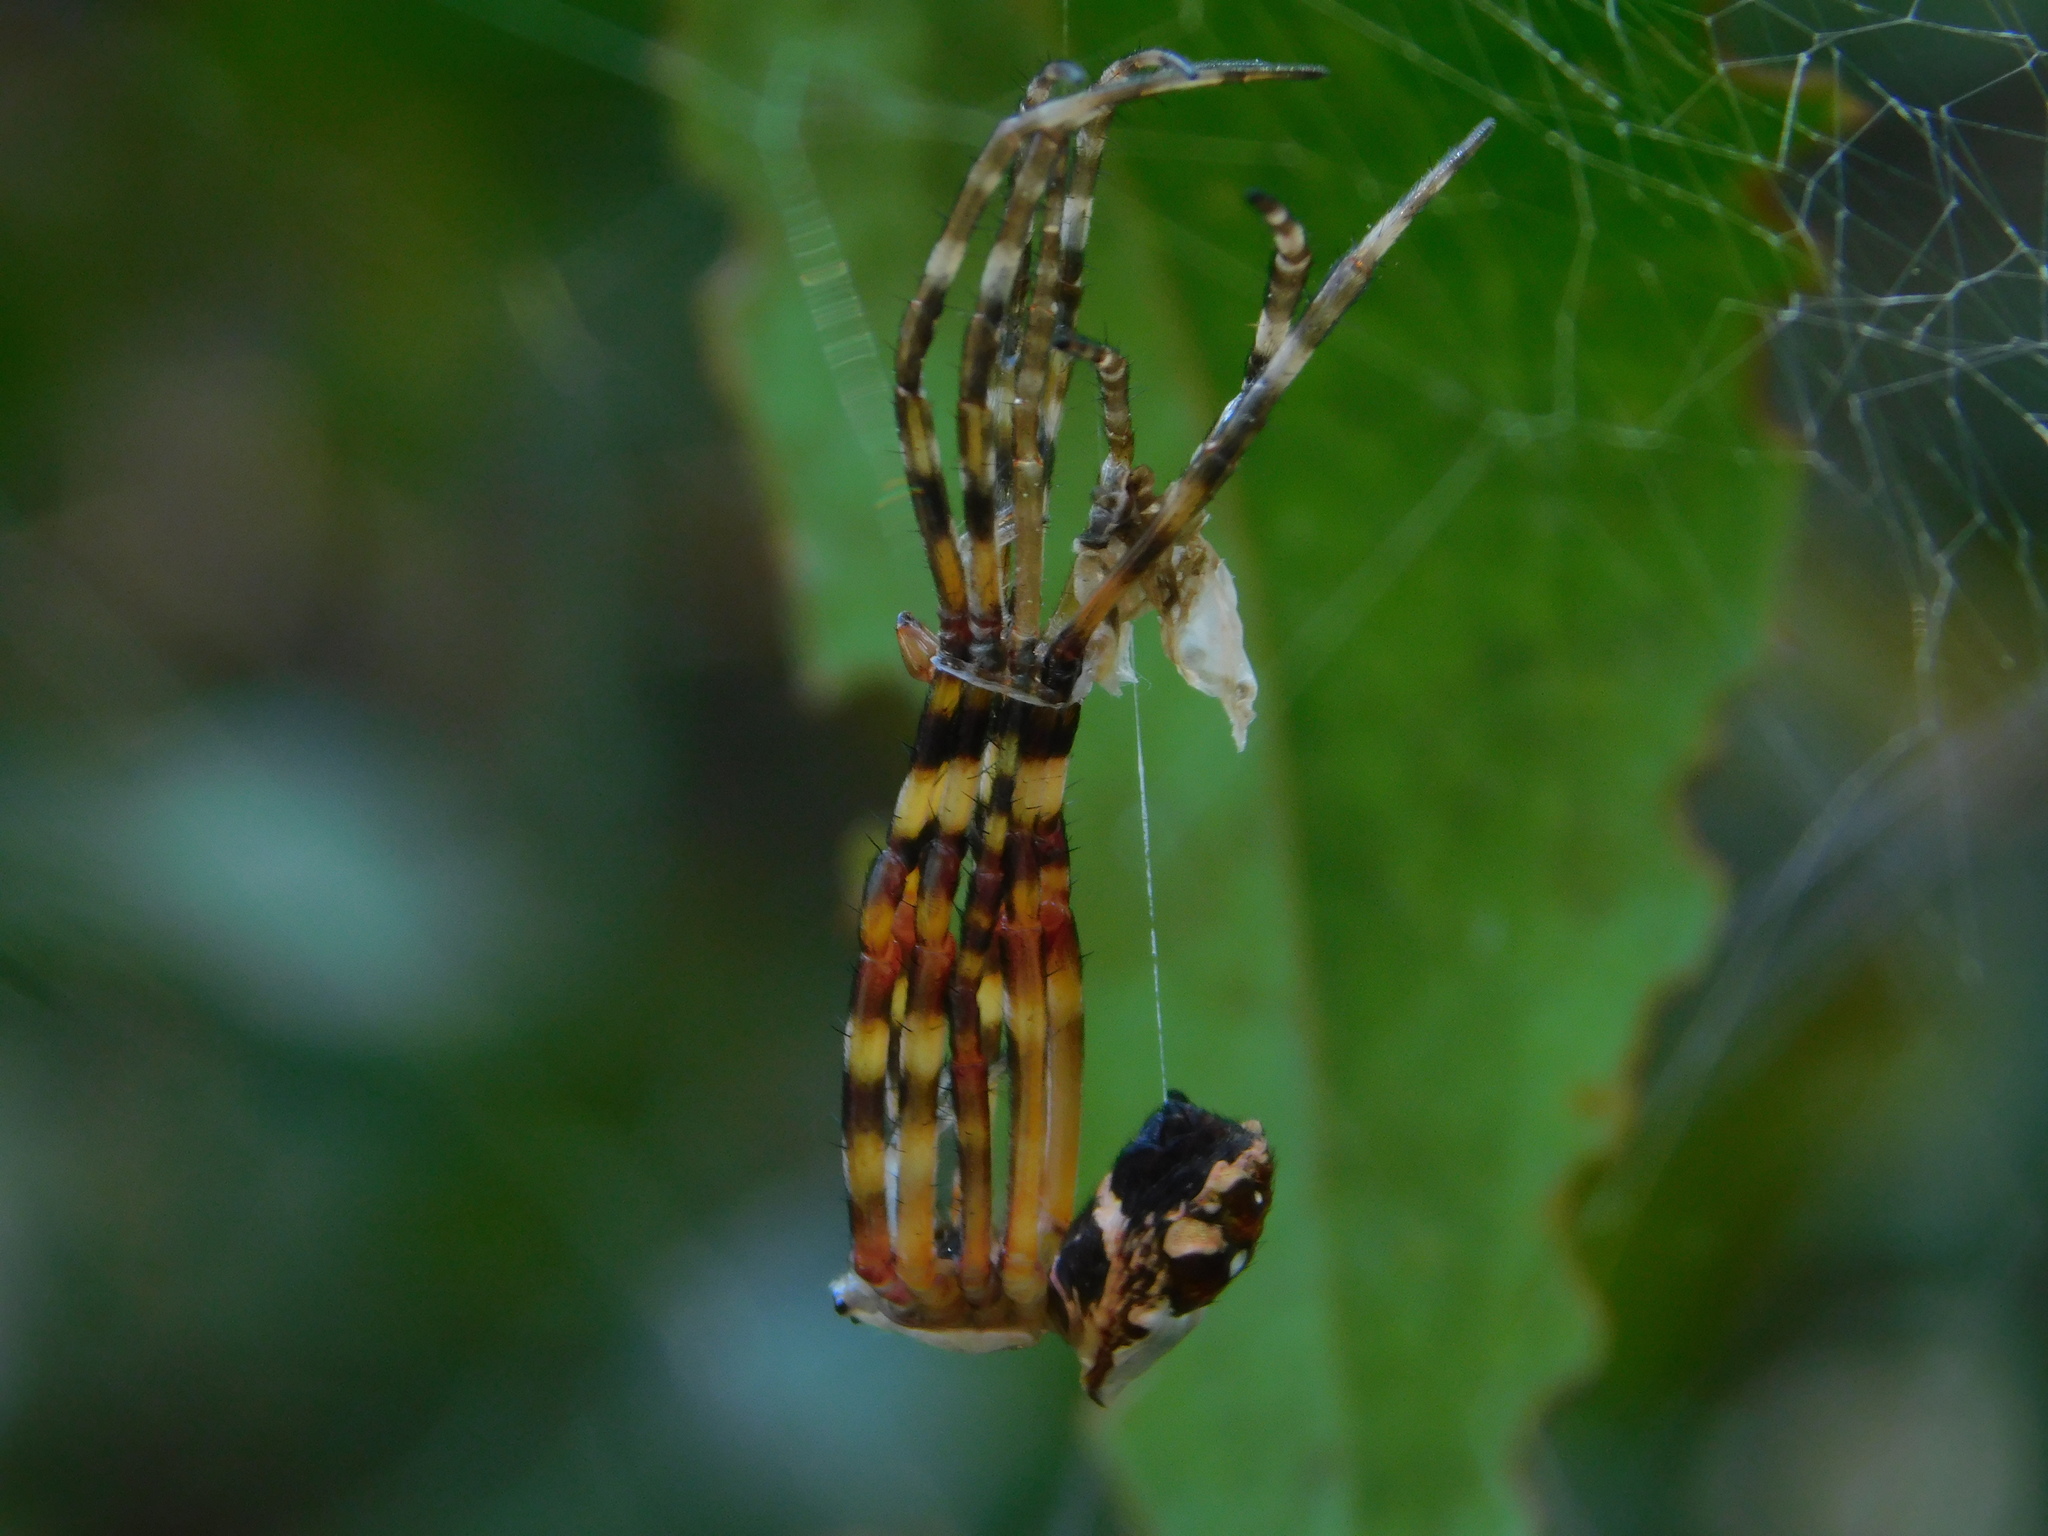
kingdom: Animalia
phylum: Arthropoda
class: Arachnida
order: Araneae
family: Araneidae
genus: Argiope
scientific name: Argiope argentata
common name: Orb weavers
